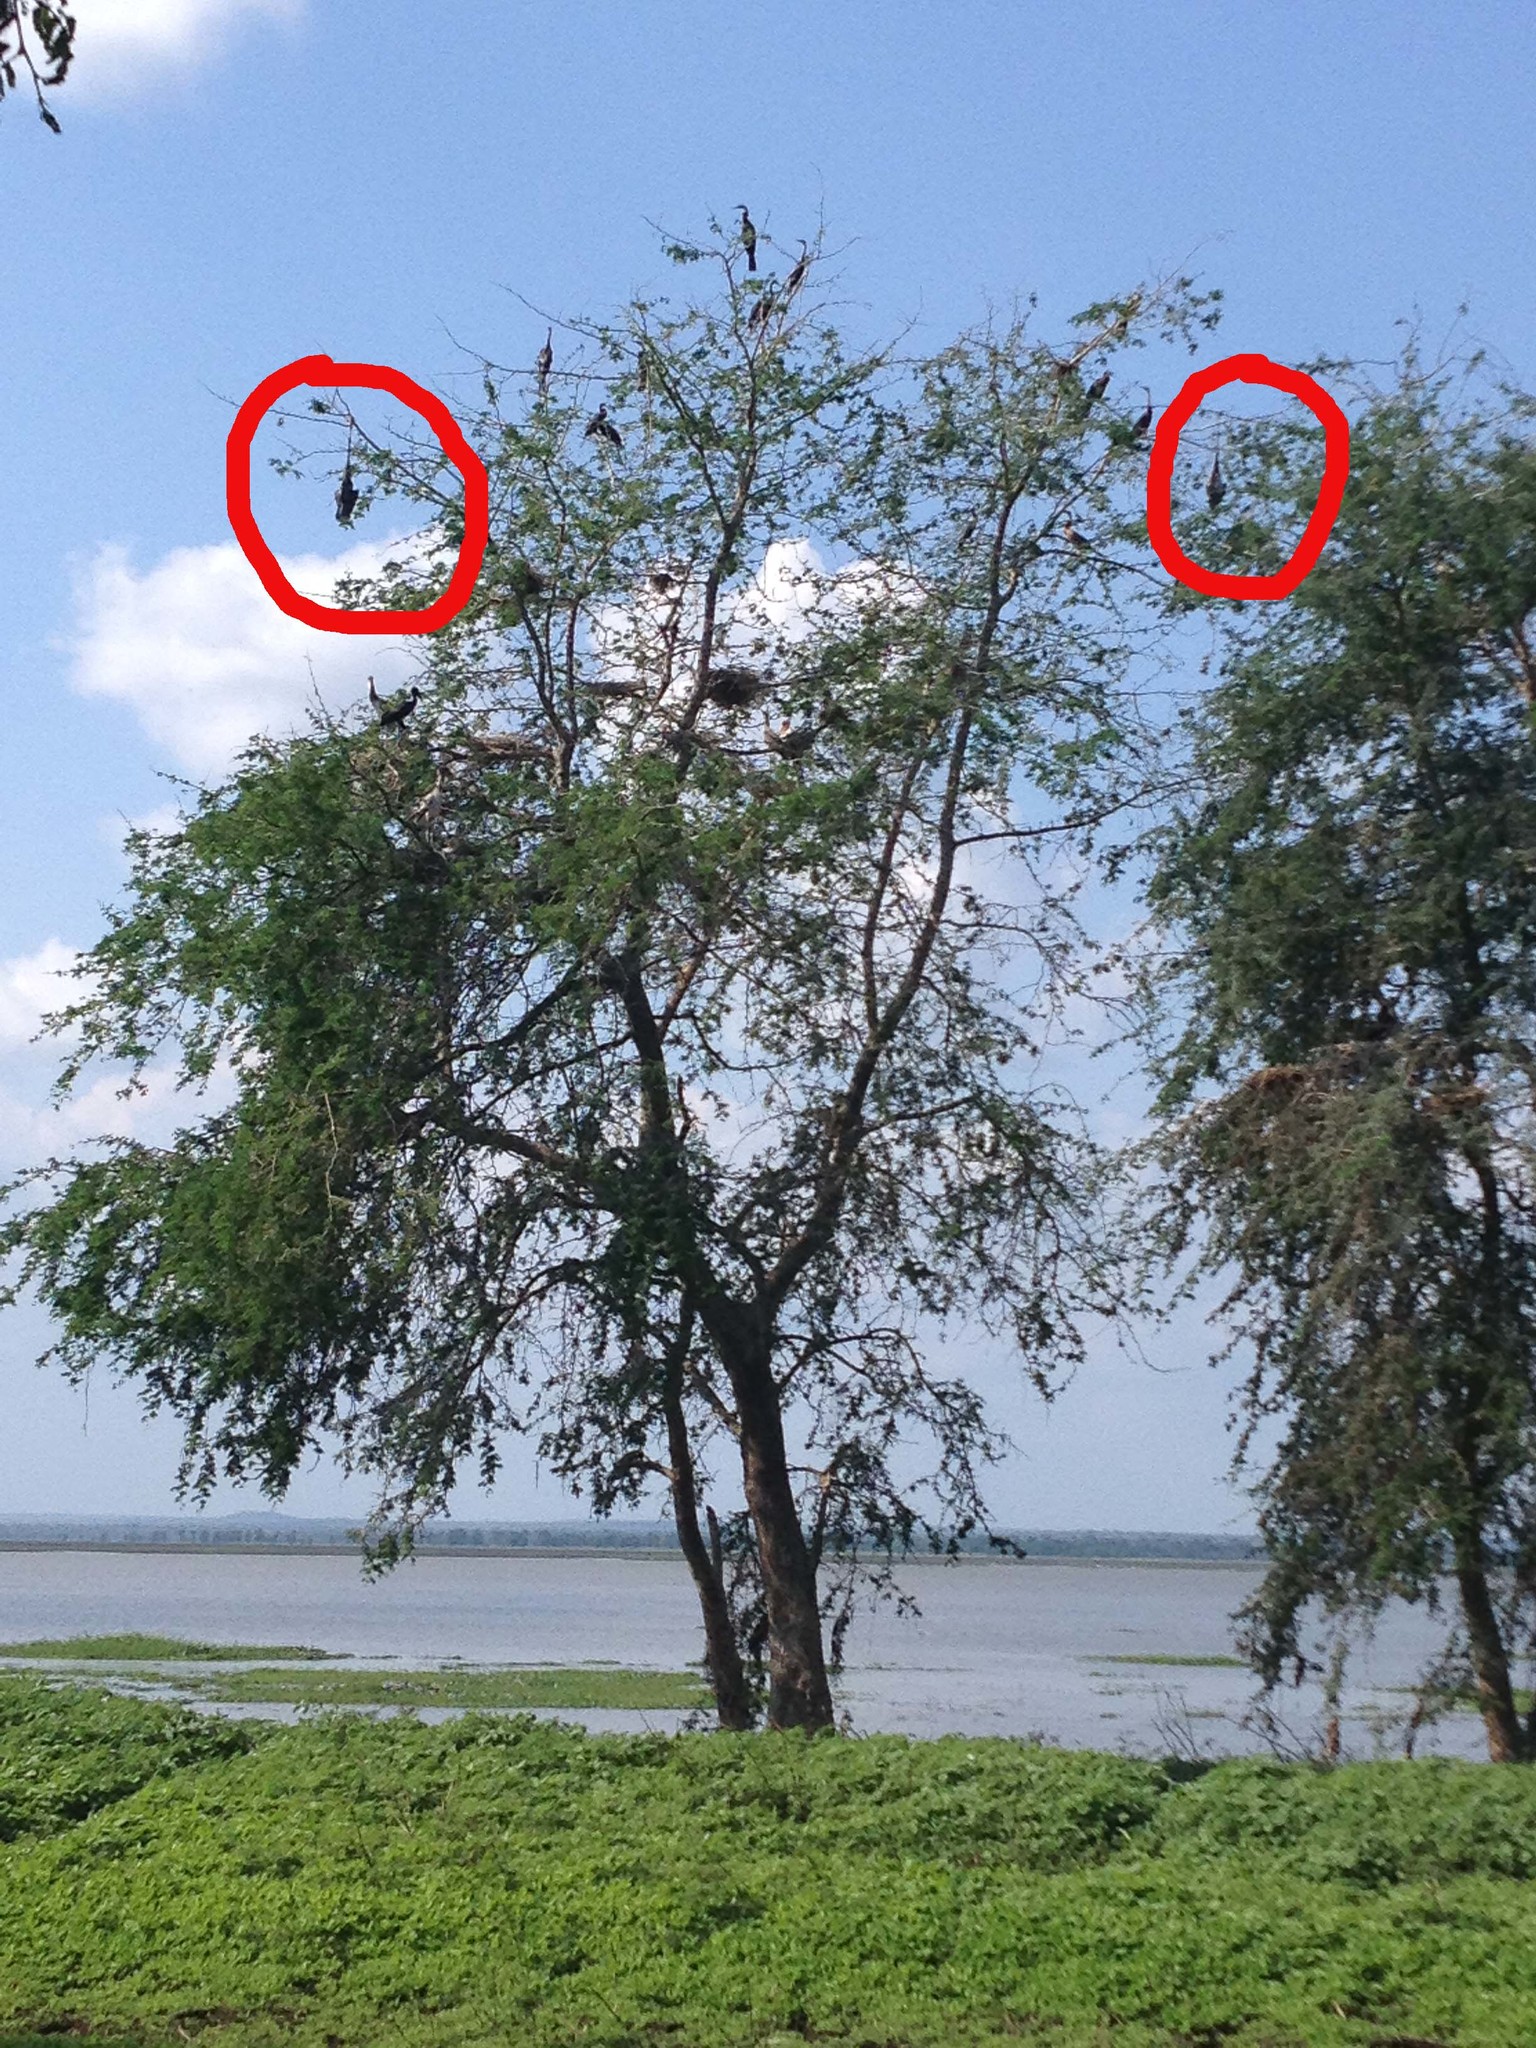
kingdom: Animalia
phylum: Chordata
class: Aves
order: Suliformes
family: Anhingidae
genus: Anhinga
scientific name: Anhinga rufa
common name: African darter
